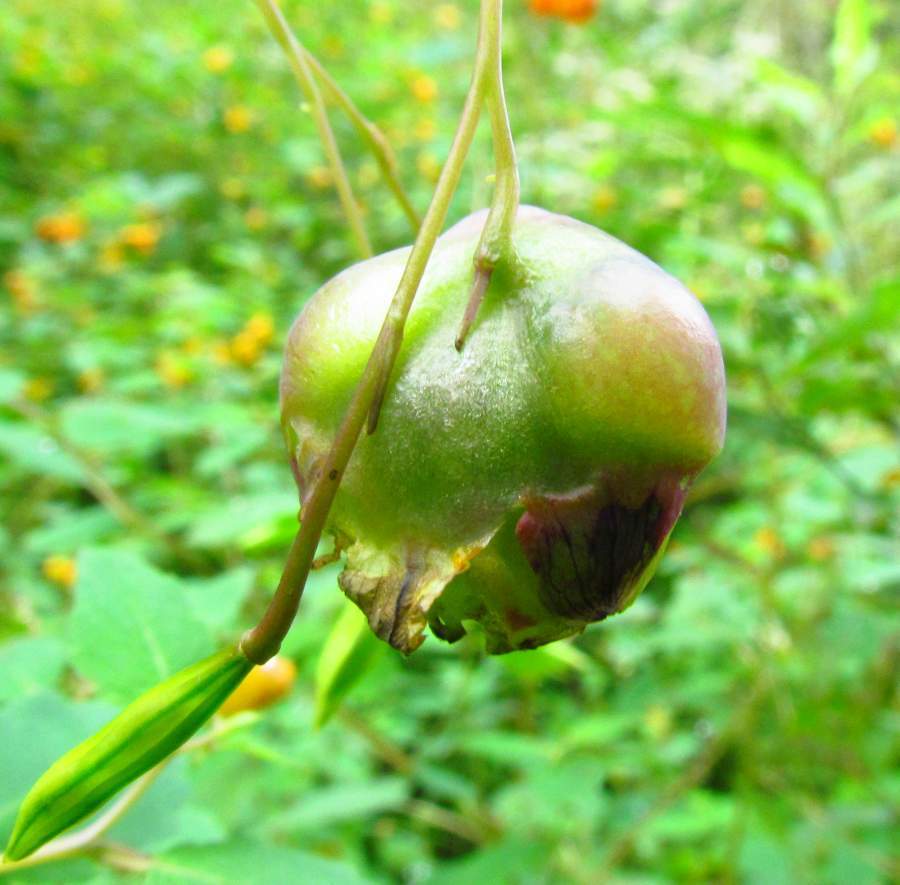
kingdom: Animalia
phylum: Arthropoda
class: Insecta
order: Diptera
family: Cecidomyiidae
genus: Schizomyia
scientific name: Schizomyia impatientis
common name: Jewelweed gall midge
